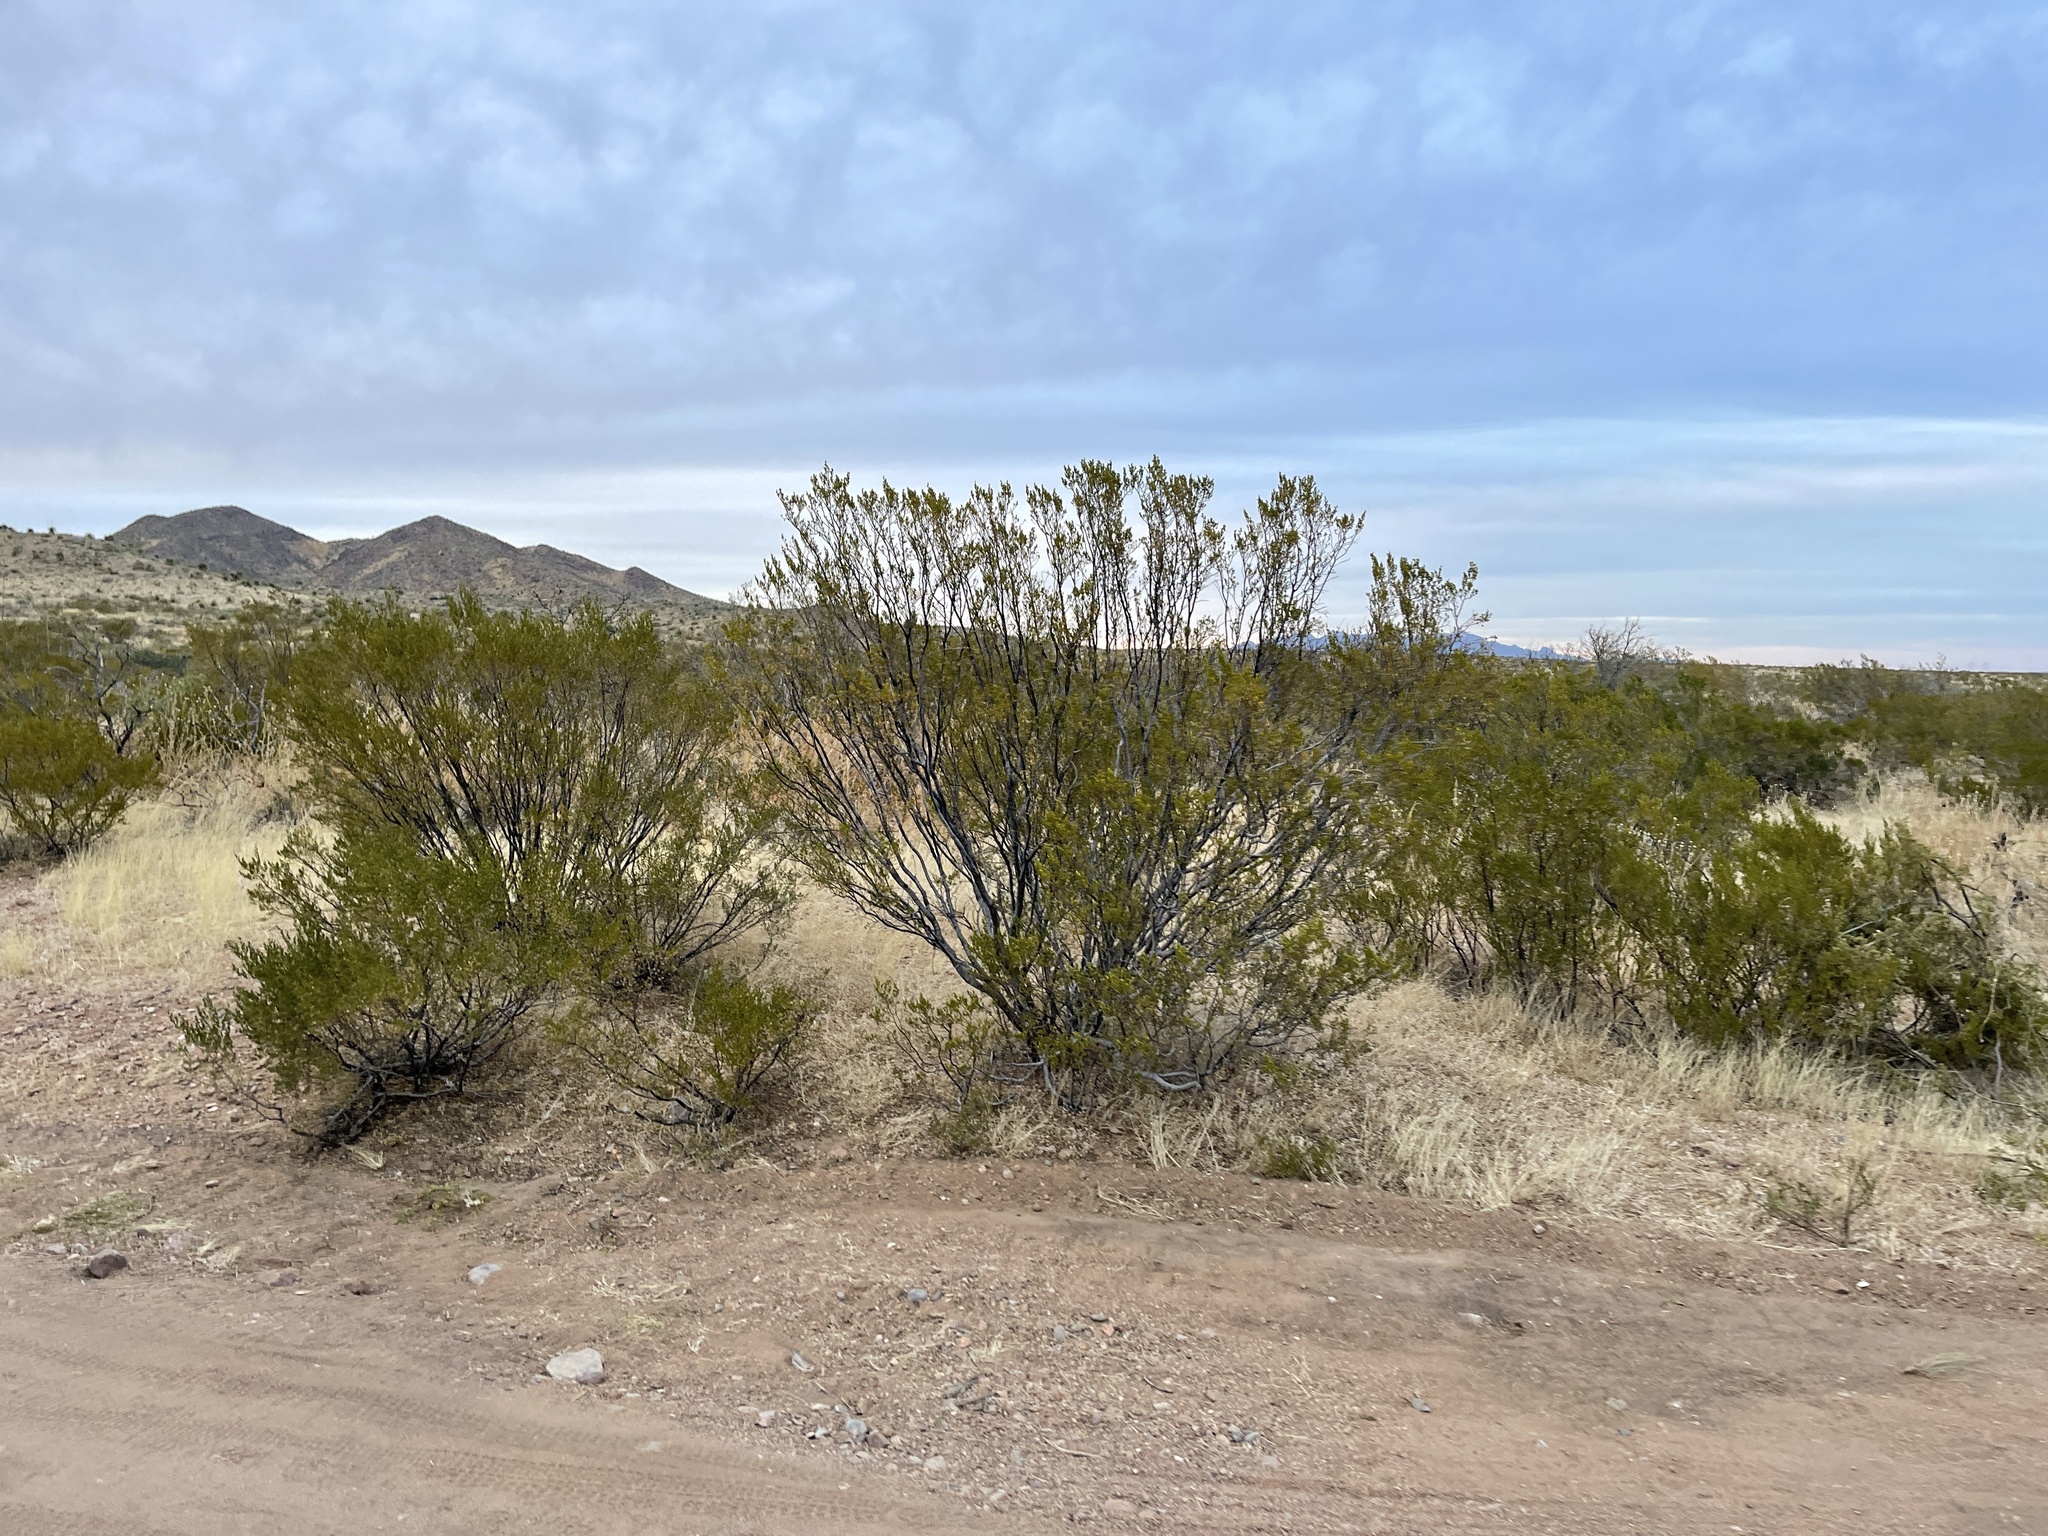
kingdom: Plantae
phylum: Tracheophyta
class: Magnoliopsida
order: Zygophyllales
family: Zygophyllaceae
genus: Larrea
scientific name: Larrea tridentata
